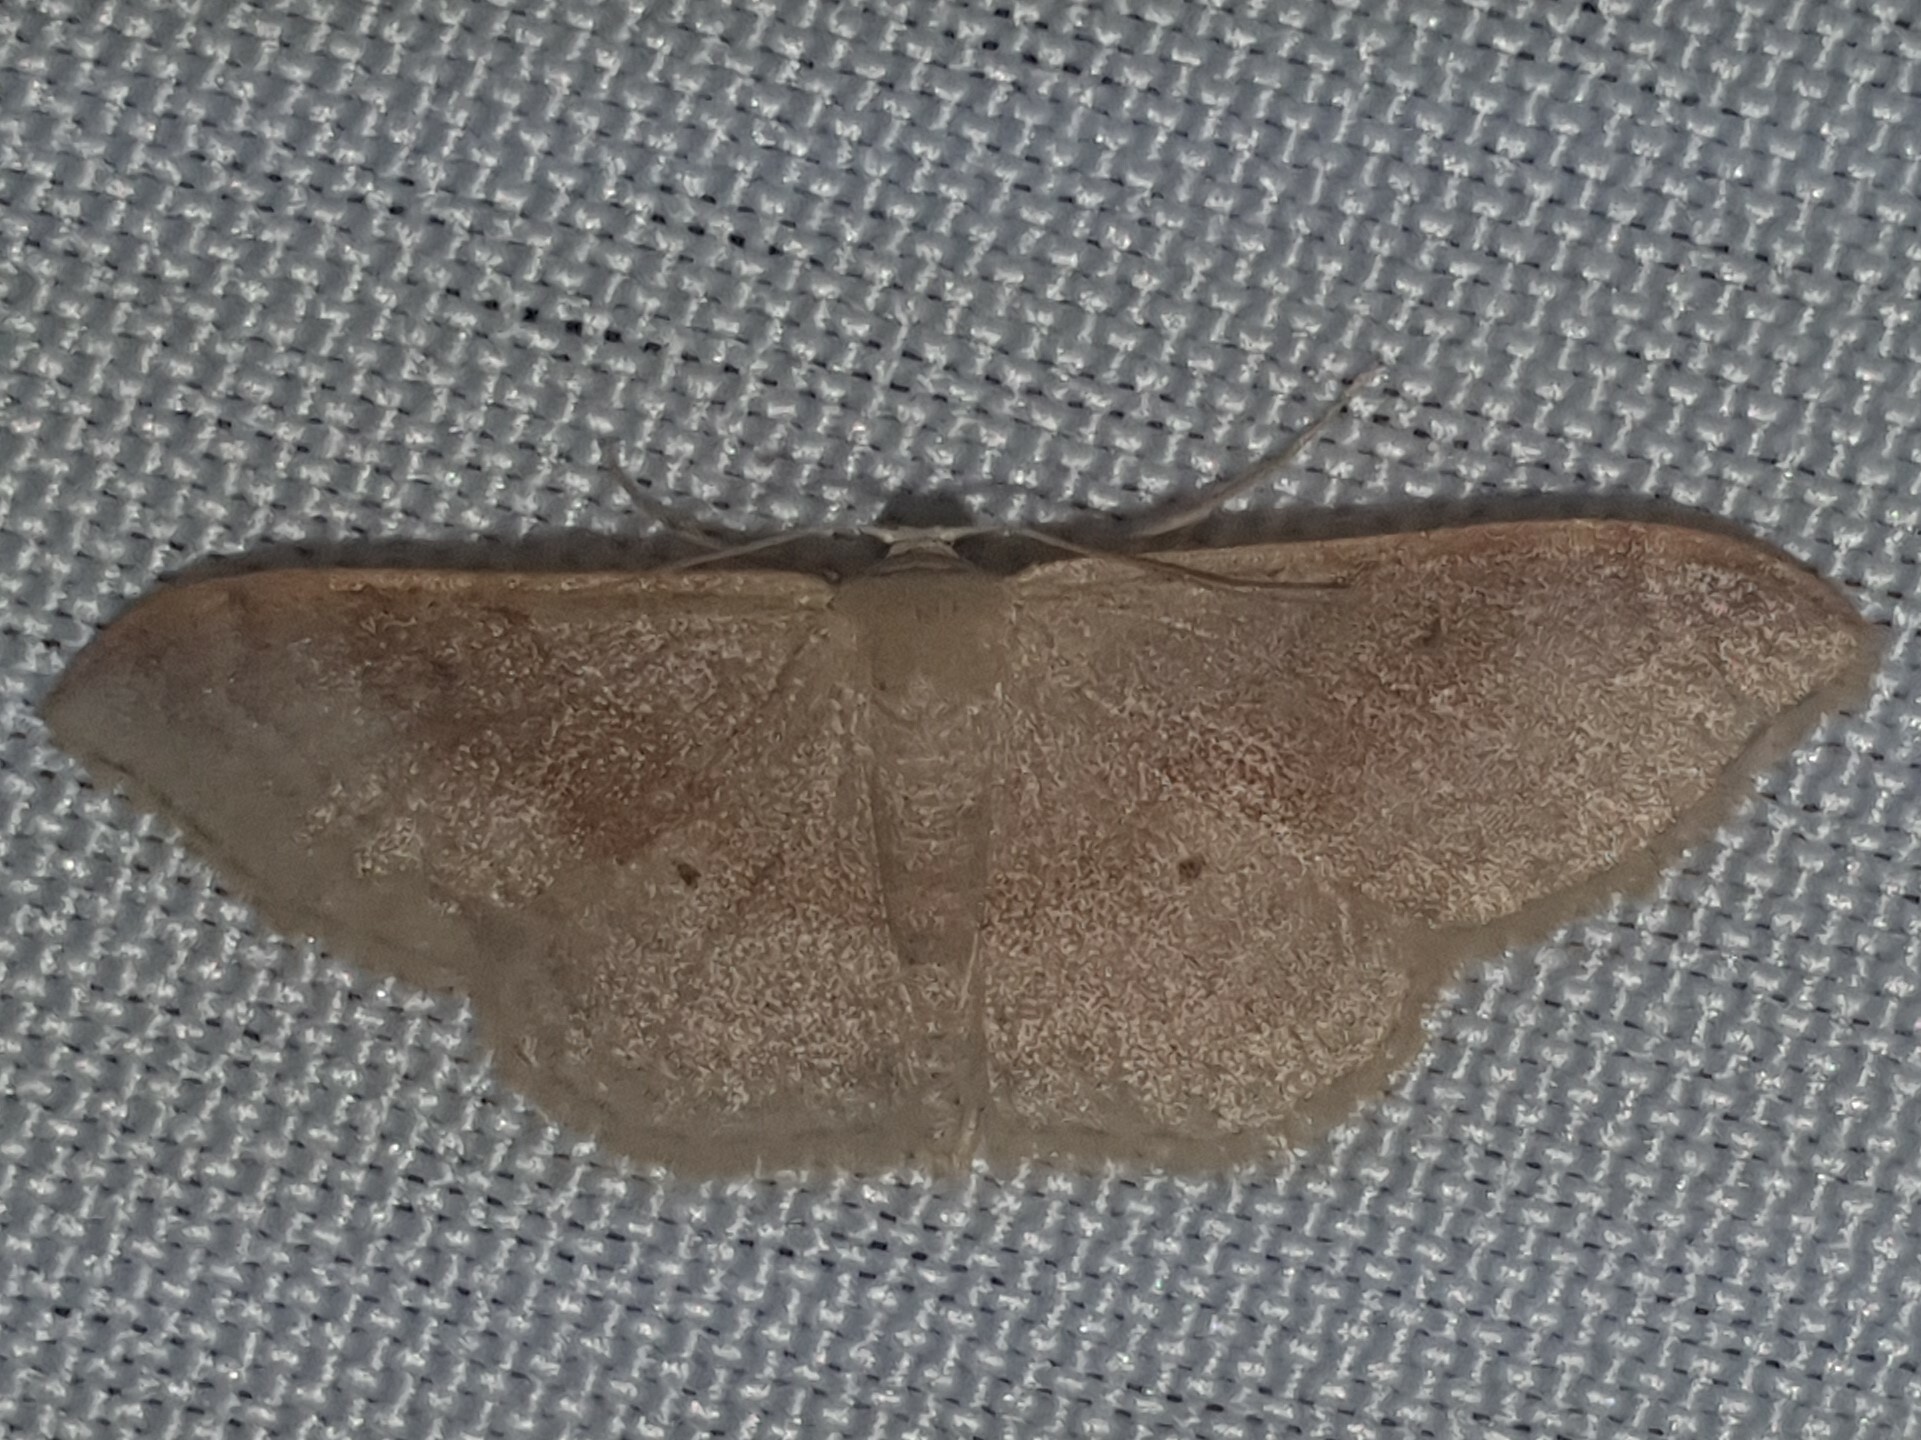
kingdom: Animalia
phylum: Arthropoda
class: Insecta
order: Lepidoptera
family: Geometridae
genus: Idaea
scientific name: Idaea degeneraria
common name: Portland ribbon wave
